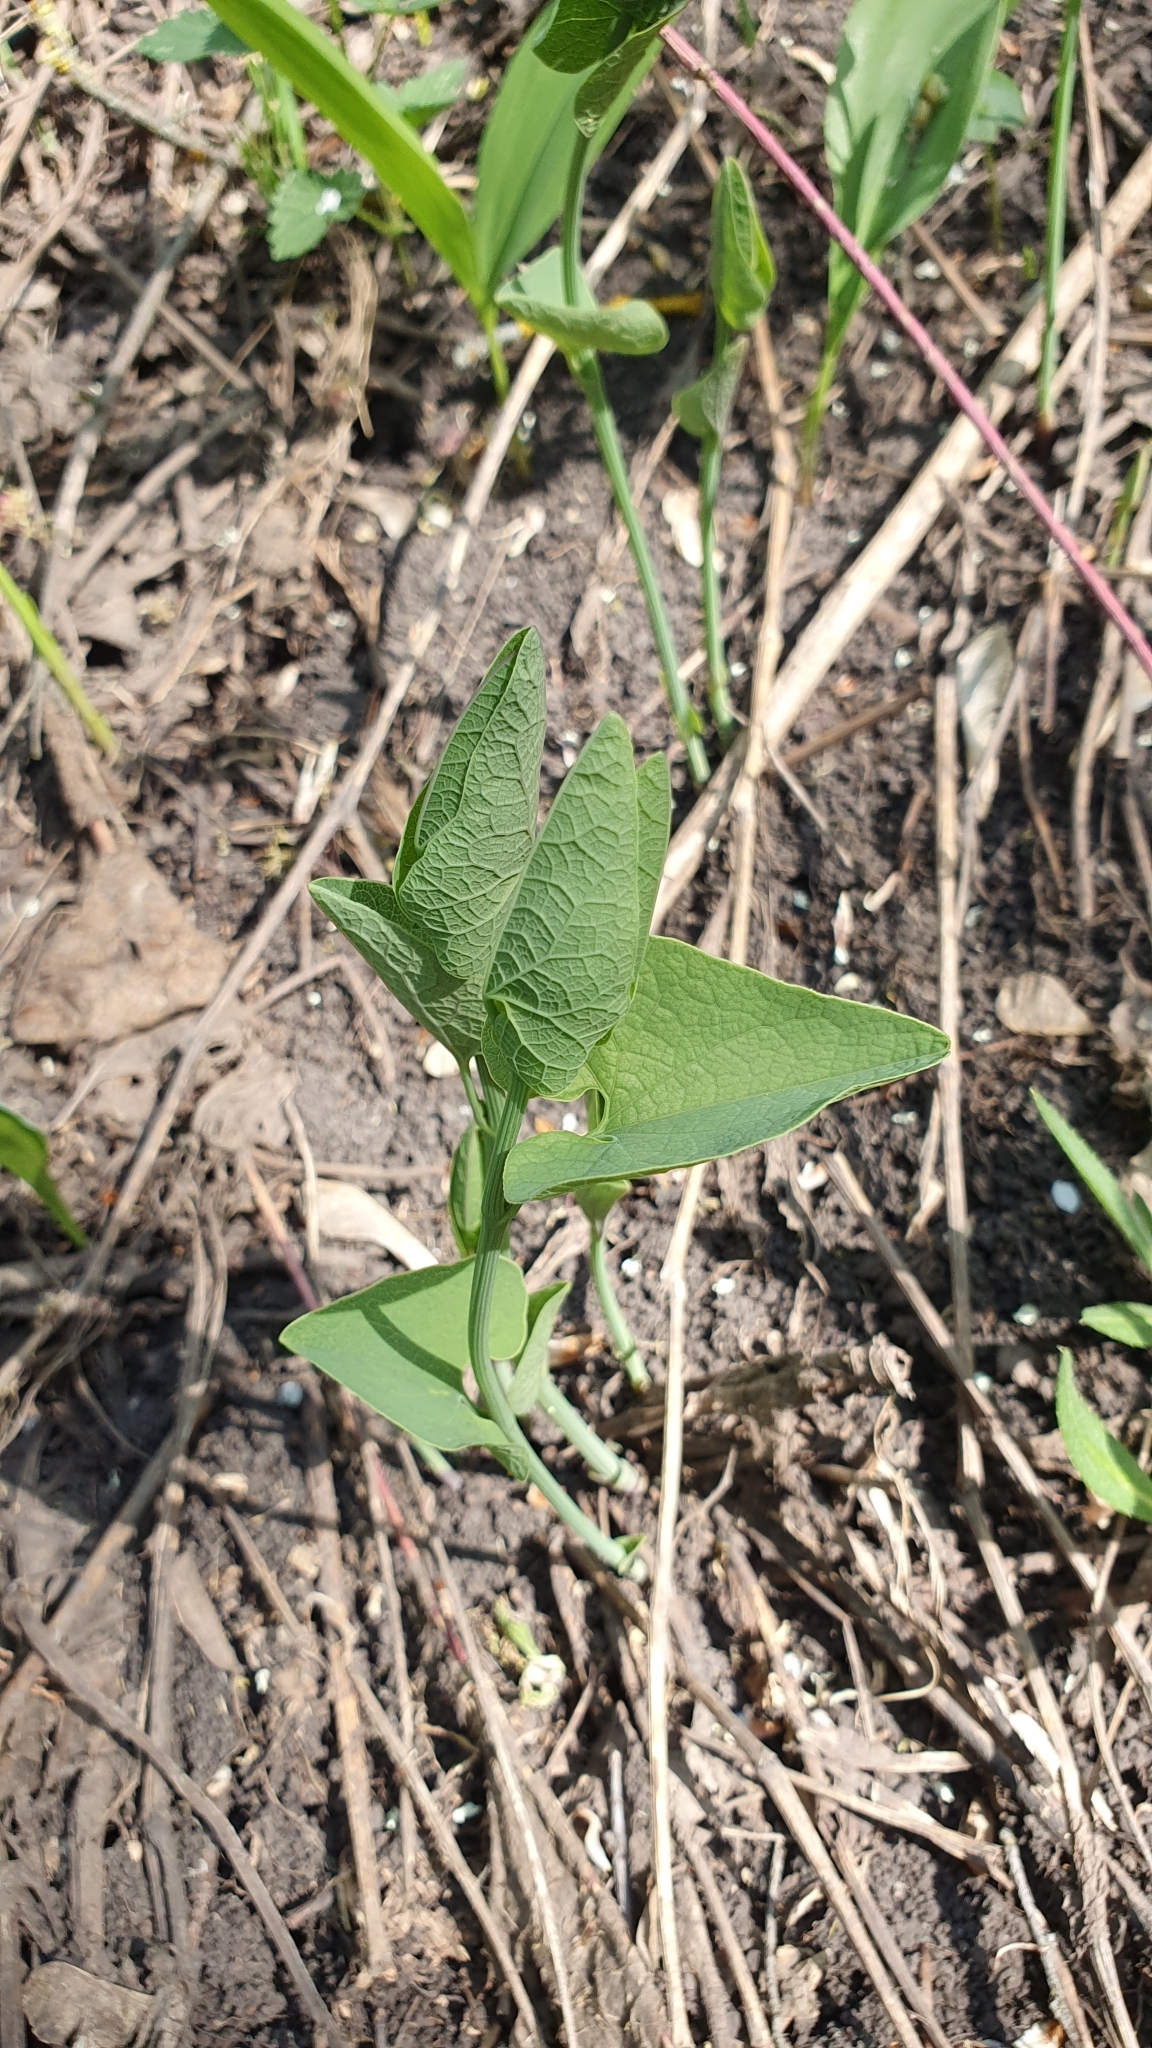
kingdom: Plantae
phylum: Tracheophyta
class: Magnoliopsida
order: Piperales
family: Aristolochiaceae
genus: Aristolochia
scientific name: Aristolochia clematitis
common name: Birthwort
